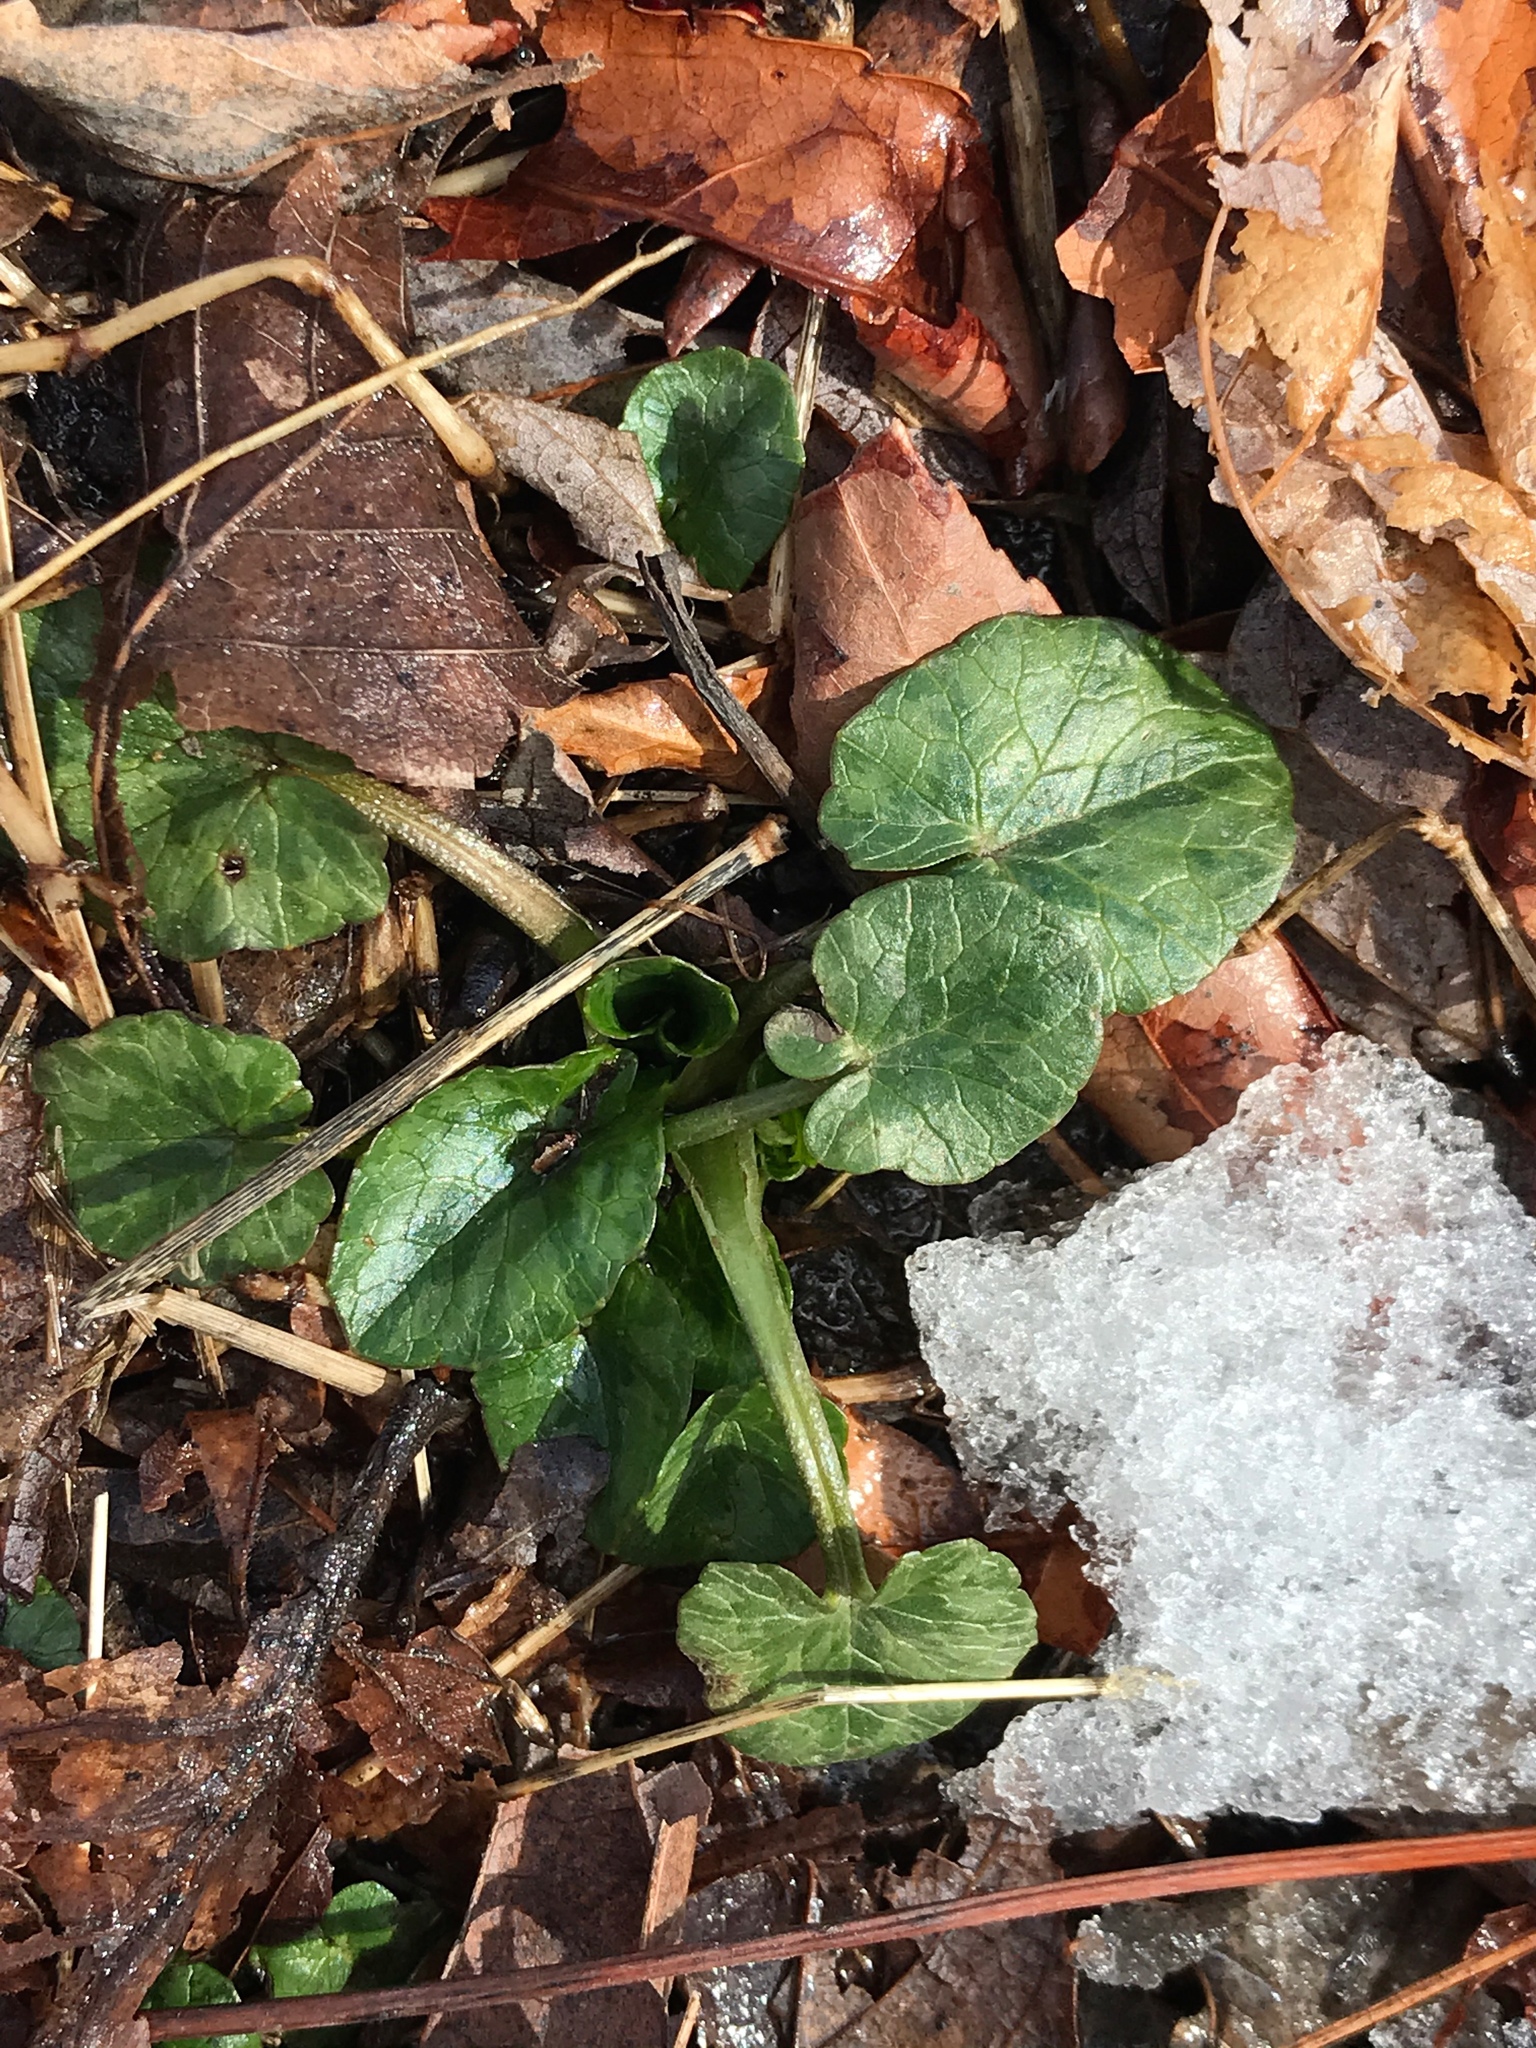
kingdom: Plantae
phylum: Tracheophyta
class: Magnoliopsida
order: Ranunculales
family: Ranunculaceae
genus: Ficaria
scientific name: Ficaria verna
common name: Lesser celandine
